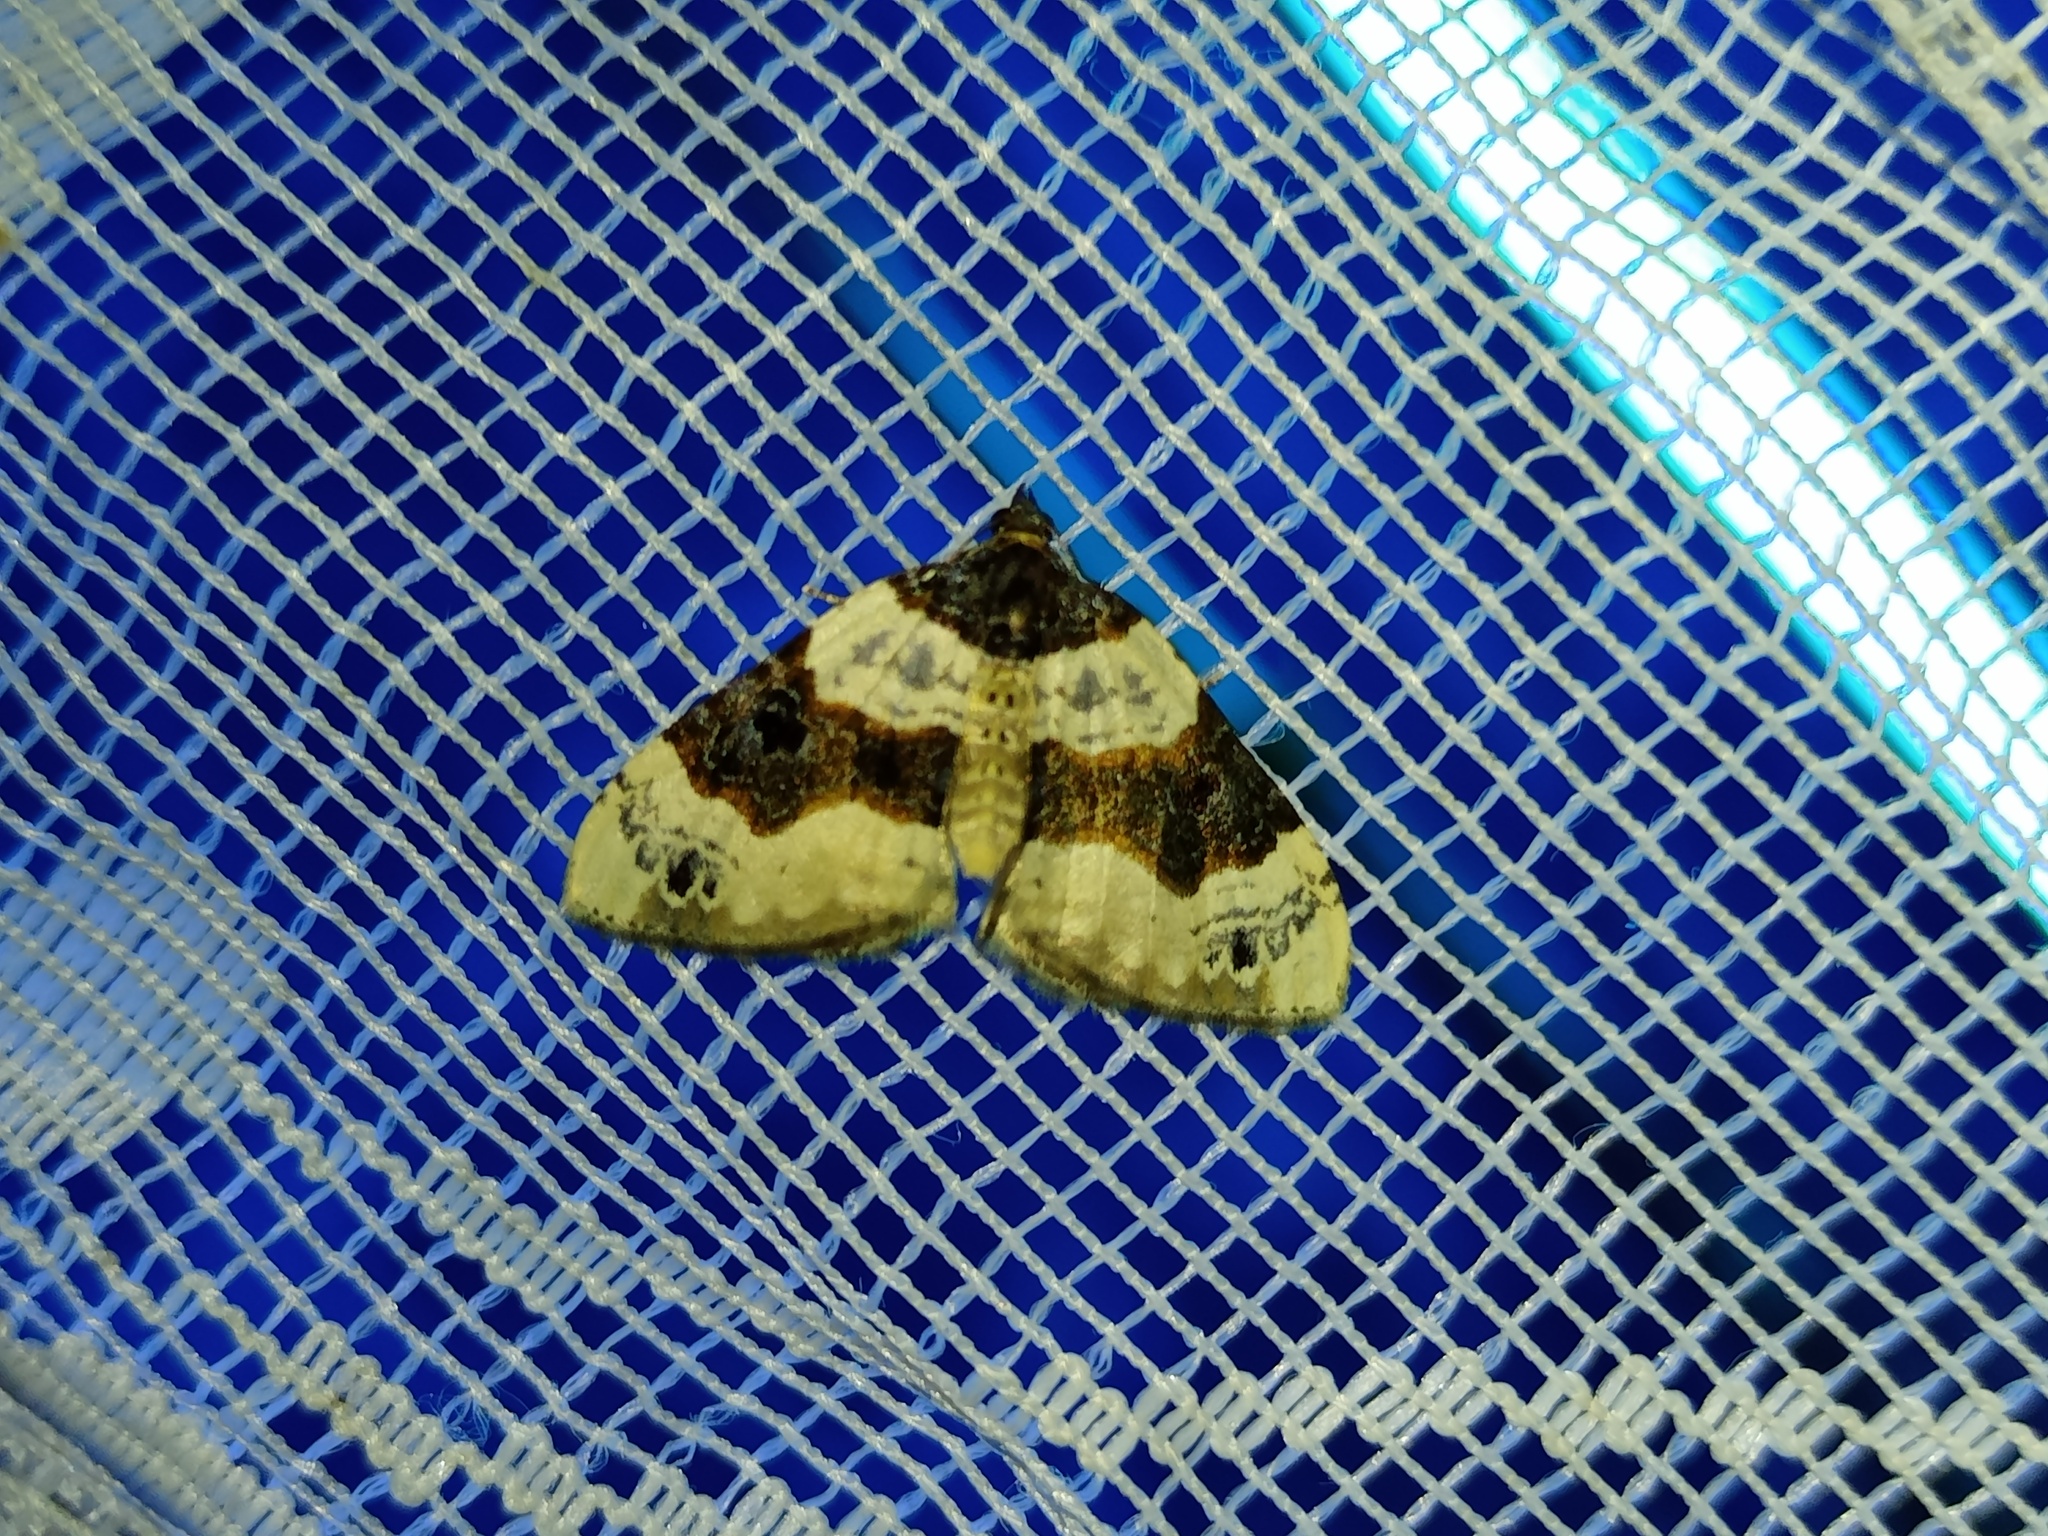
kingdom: Animalia
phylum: Arthropoda
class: Insecta
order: Lepidoptera
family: Geometridae
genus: Cosmorhoe
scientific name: Cosmorhoe ocellata
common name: Purple bar
